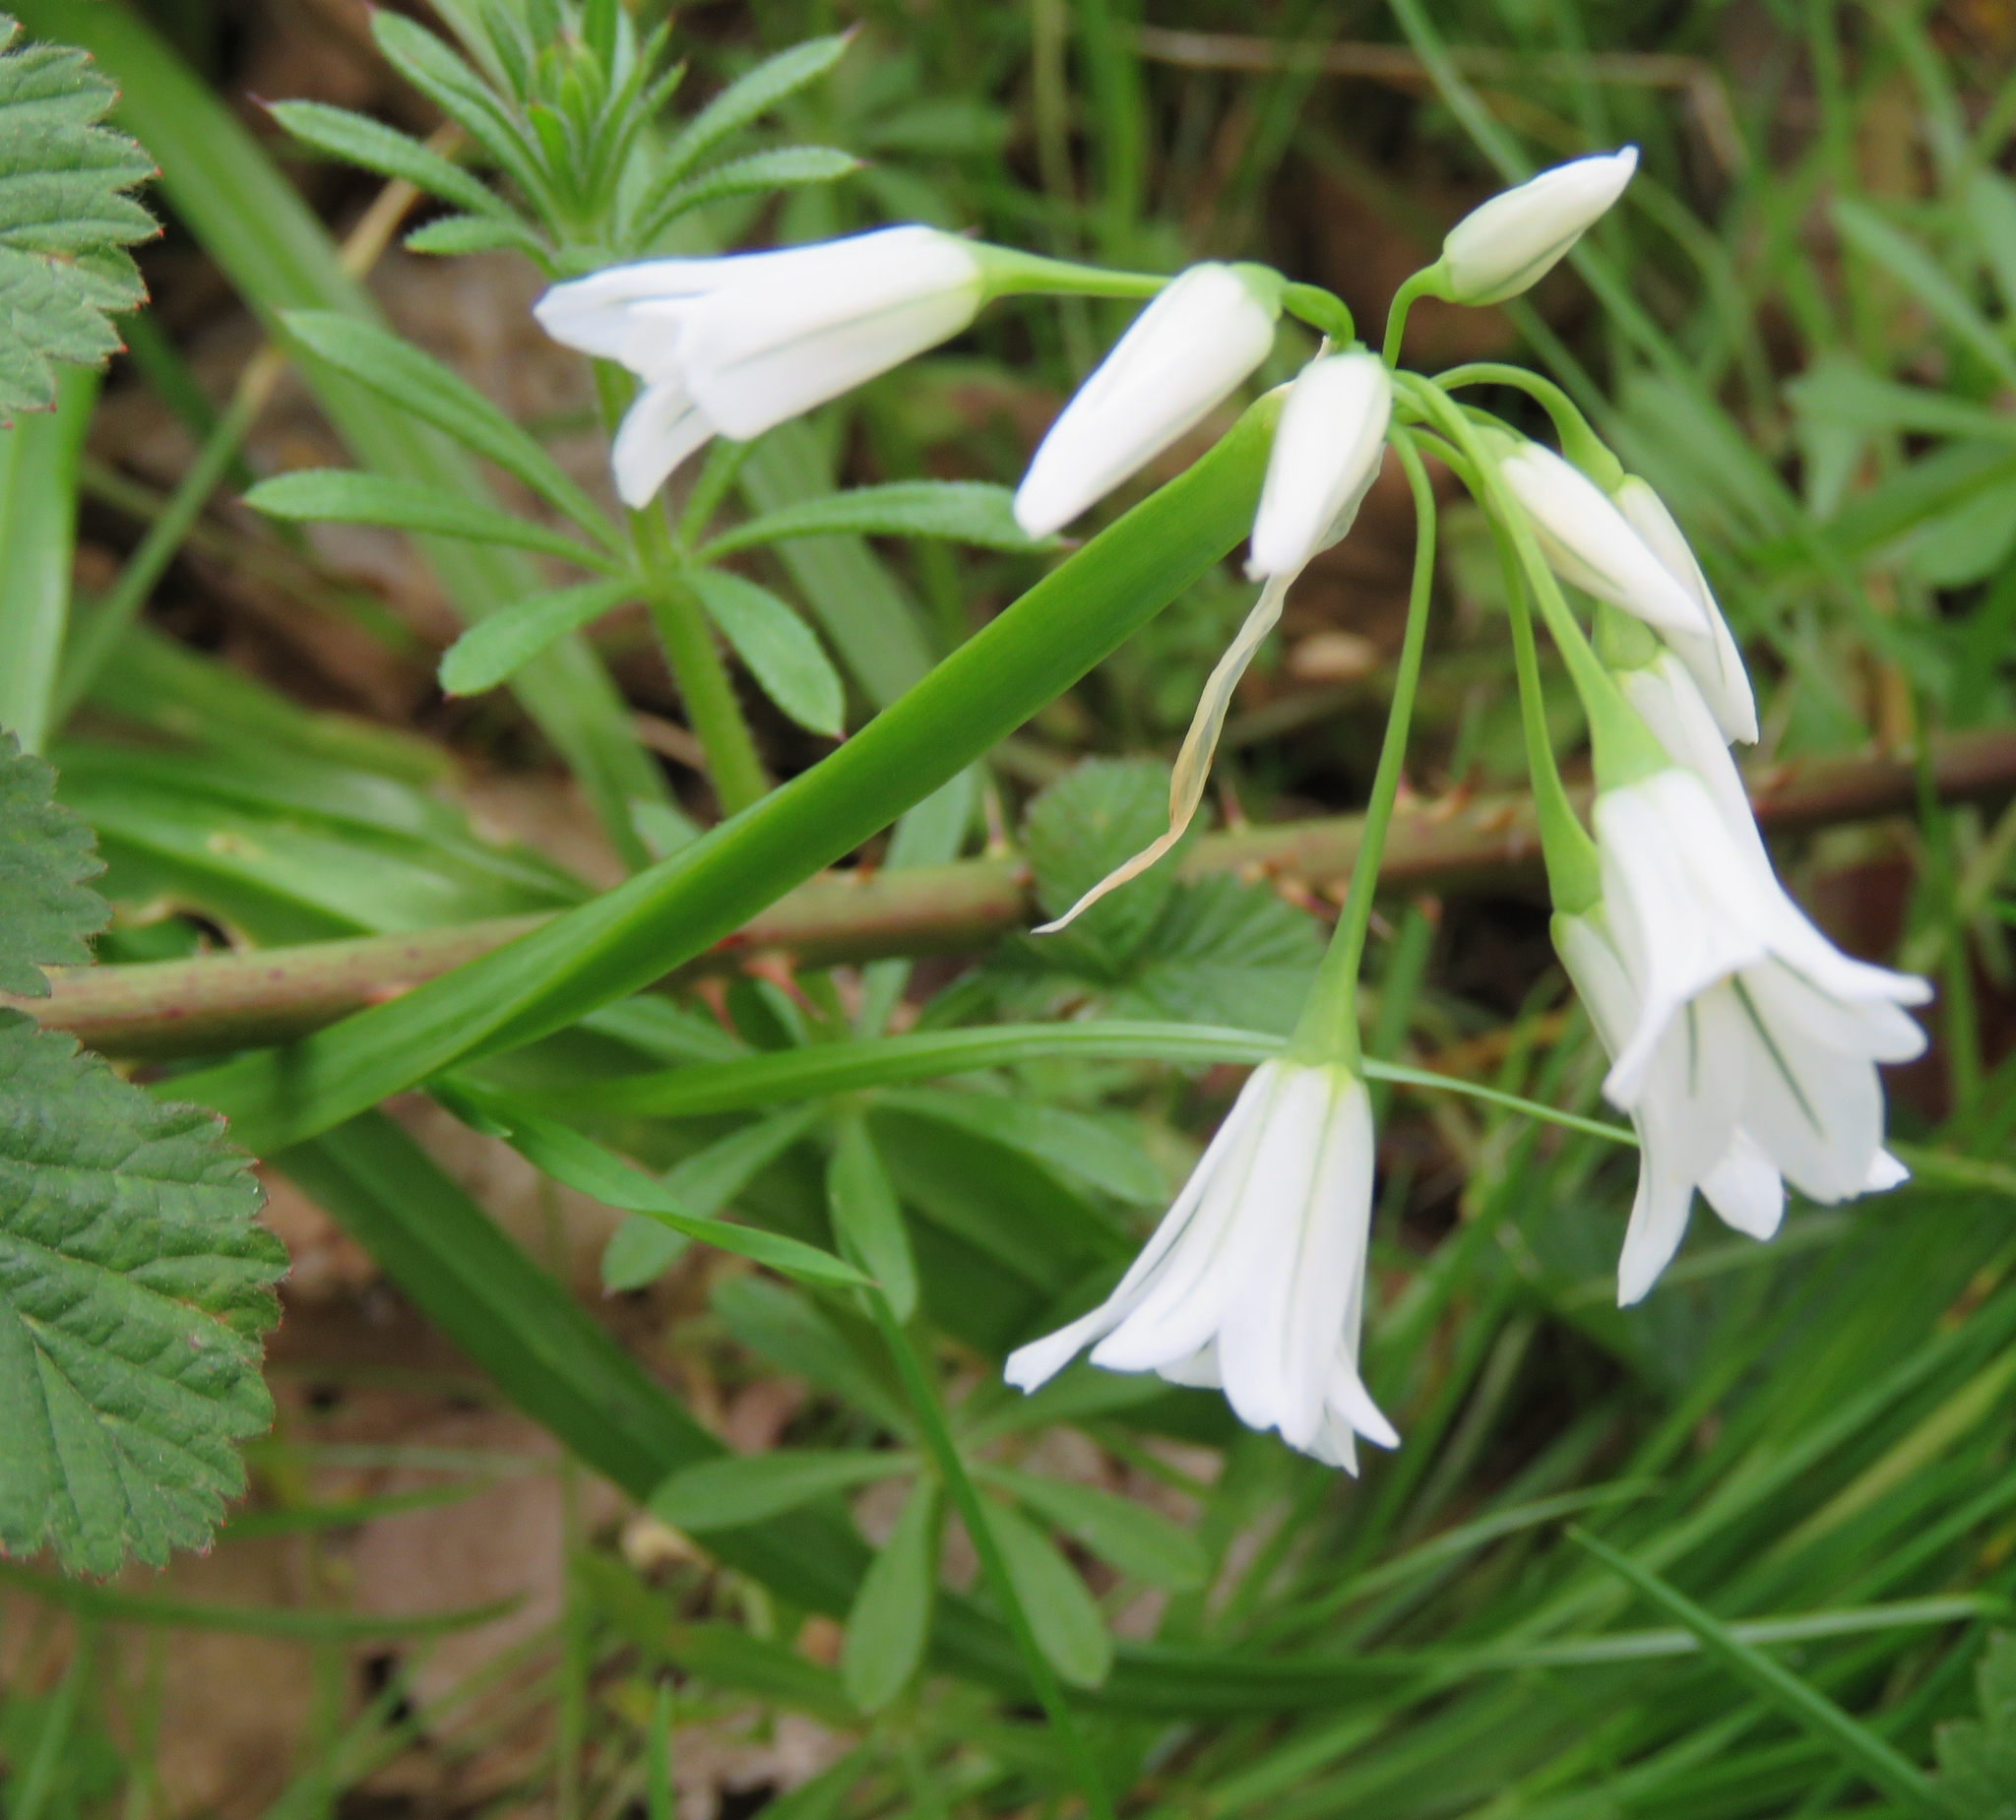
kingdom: Plantae
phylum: Tracheophyta
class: Liliopsida
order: Asparagales
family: Amaryllidaceae
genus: Allium
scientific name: Allium triquetrum
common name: Three-cornered garlic
